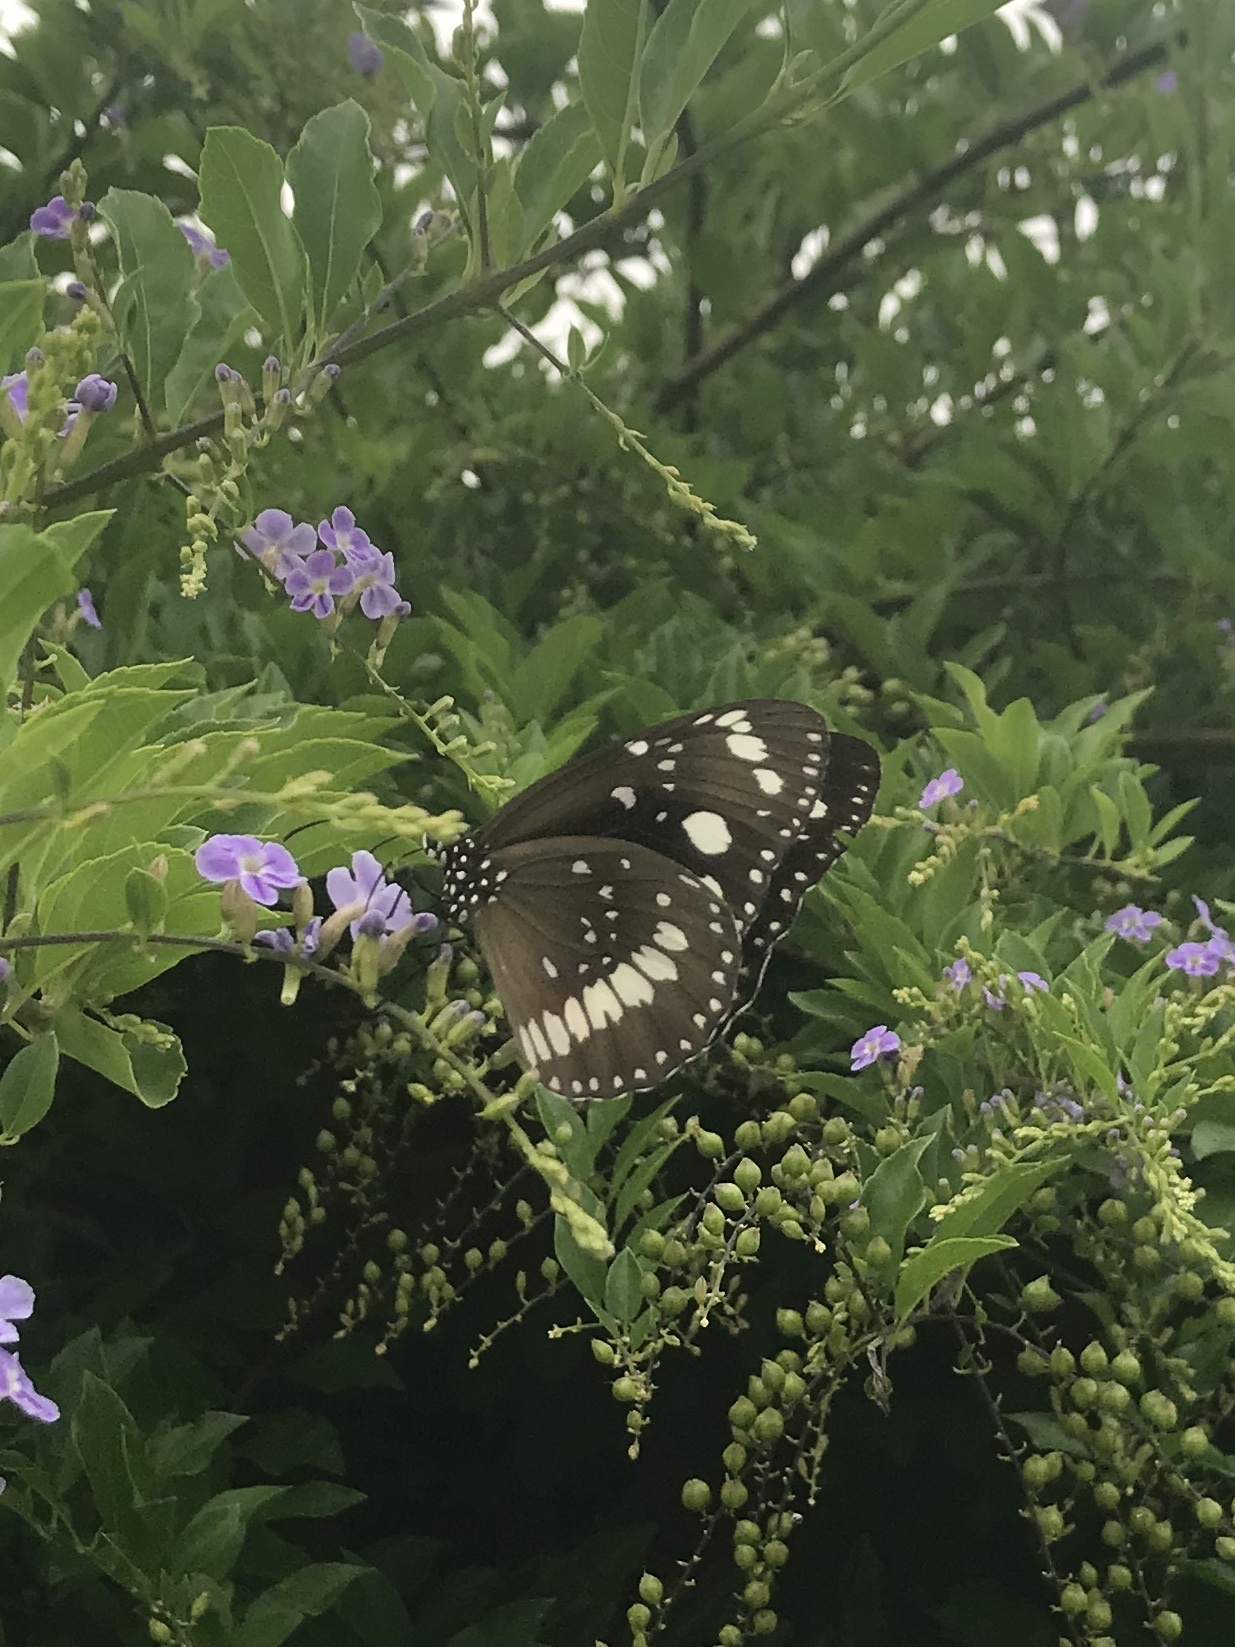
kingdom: Animalia
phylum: Arthropoda
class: Insecta
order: Lepidoptera
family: Nymphalidae
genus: Euploea
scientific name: Euploea core
